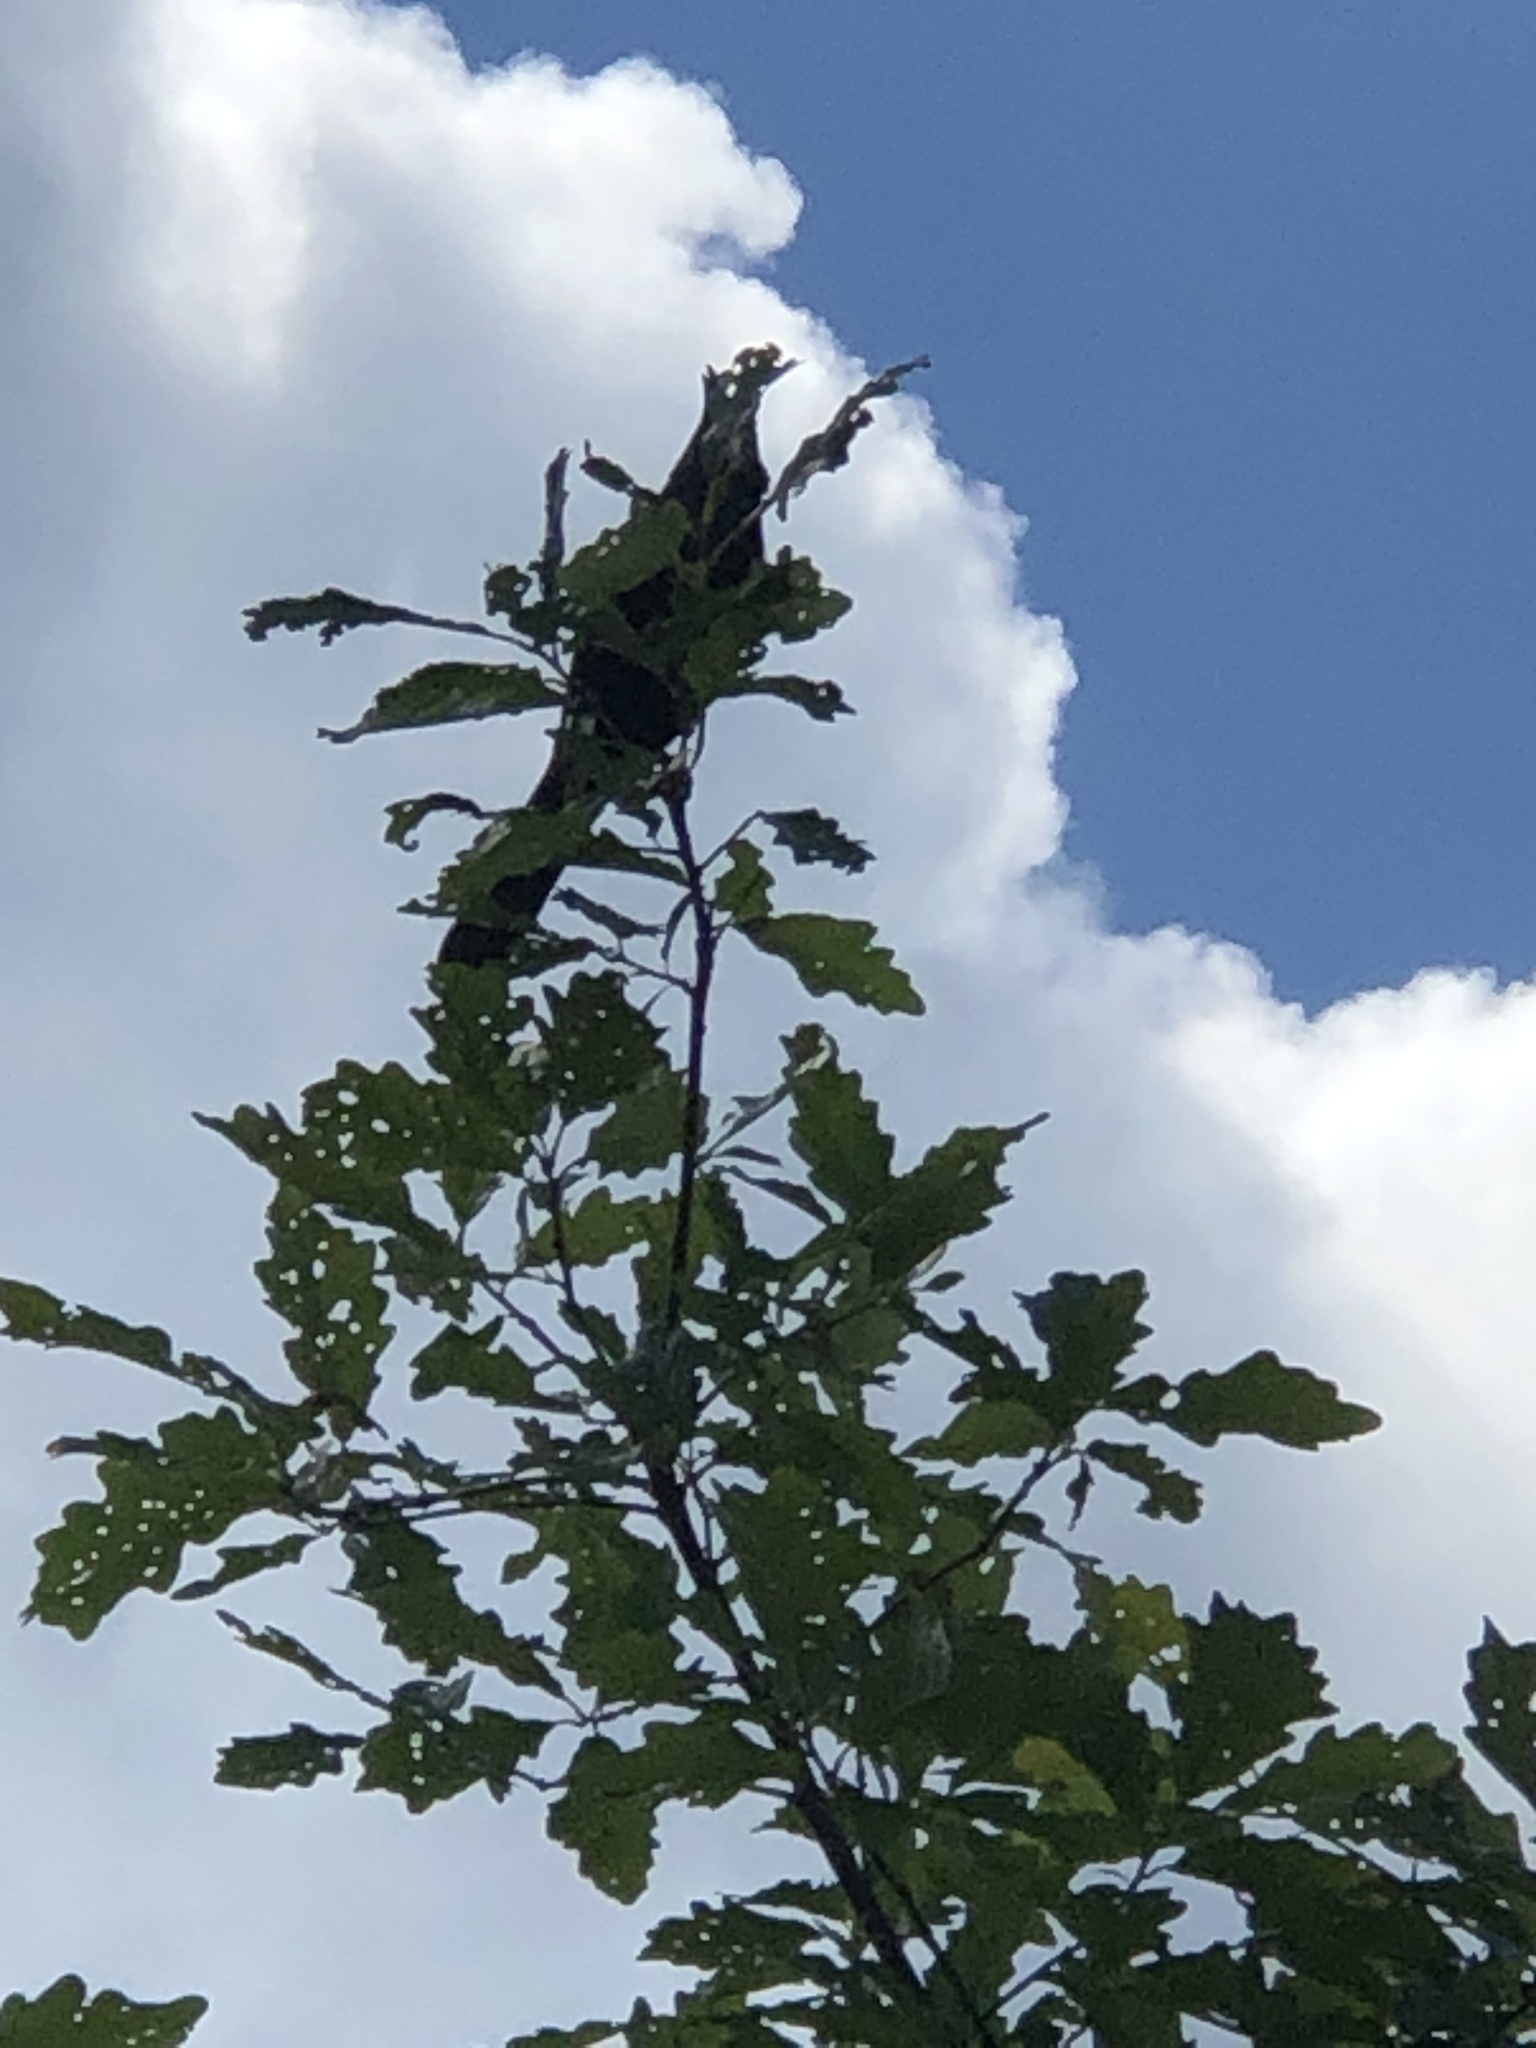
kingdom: Animalia
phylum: Chordata
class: Aves
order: Passeriformes
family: Icteridae
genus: Quiscalus
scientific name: Quiscalus quiscula
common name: Common grackle
